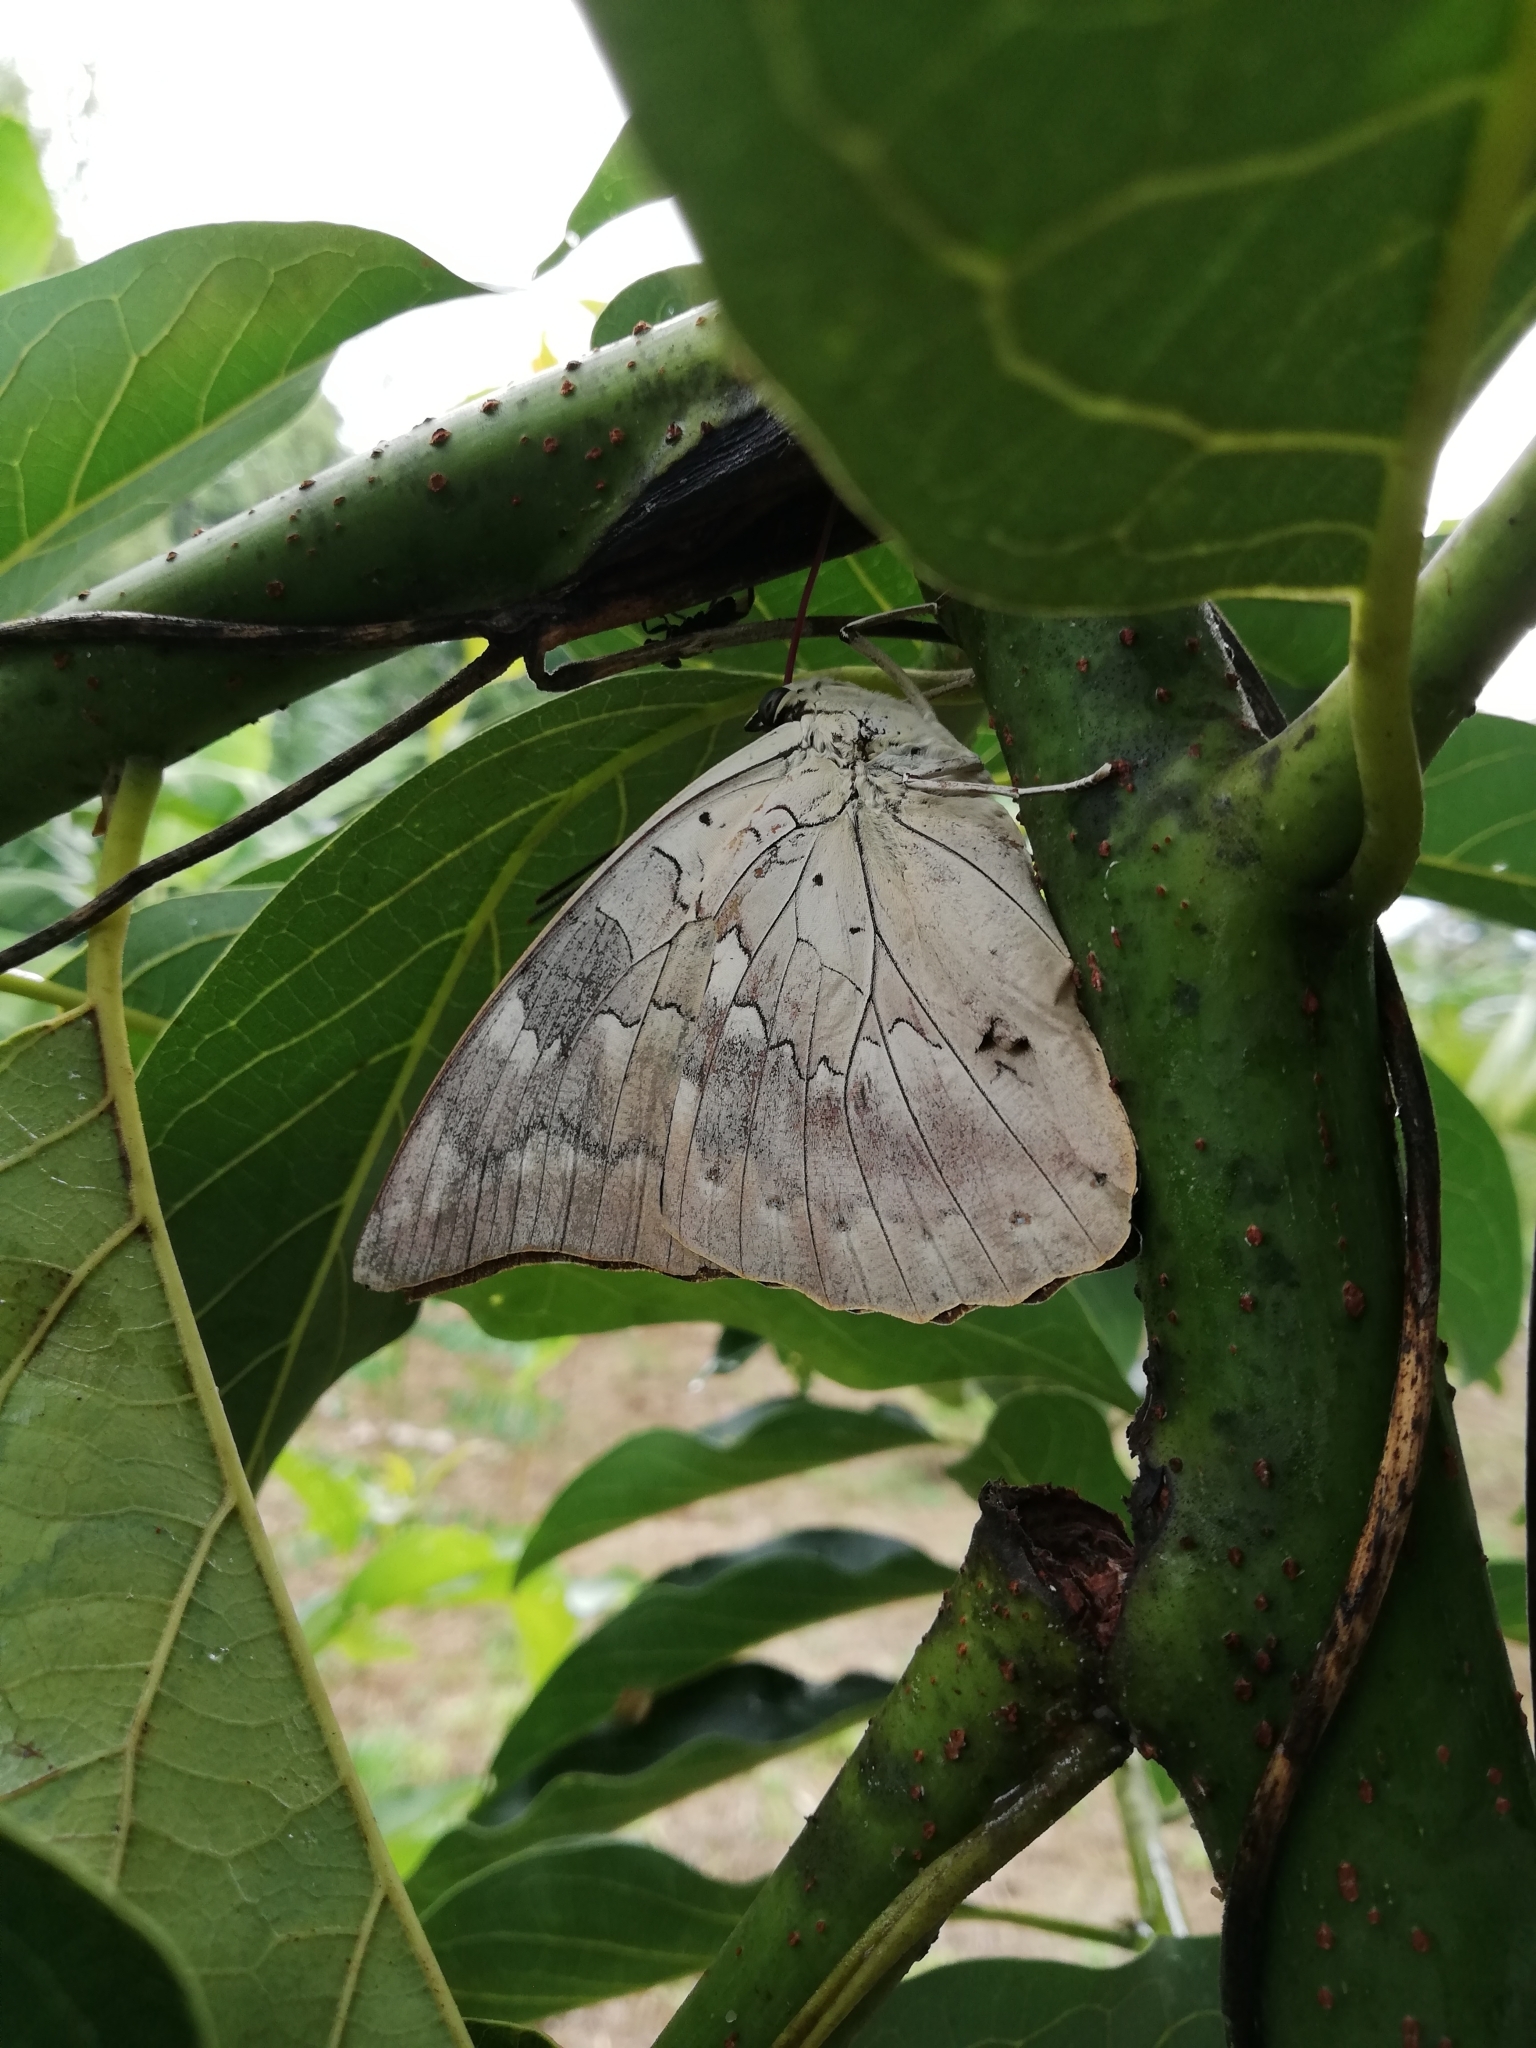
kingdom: Animalia
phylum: Arthropoda
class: Insecta
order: Lepidoptera
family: Nymphalidae
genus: Prepona
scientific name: Prepona demophon
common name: One-spotted prepona
